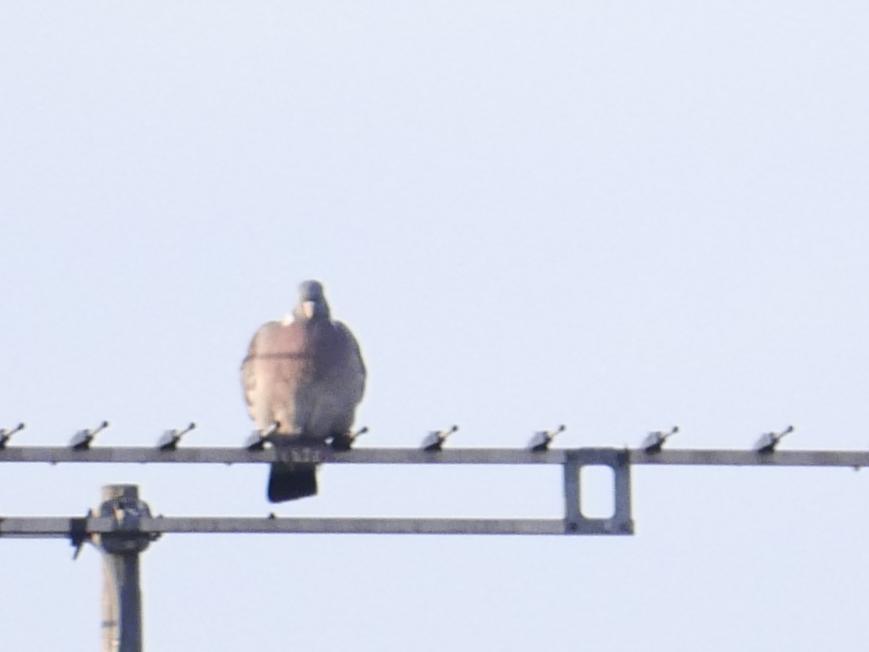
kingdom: Animalia
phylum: Chordata
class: Aves
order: Columbiformes
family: Columbidae
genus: Columba
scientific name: Columba palumbus
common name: Common wood pigeon
